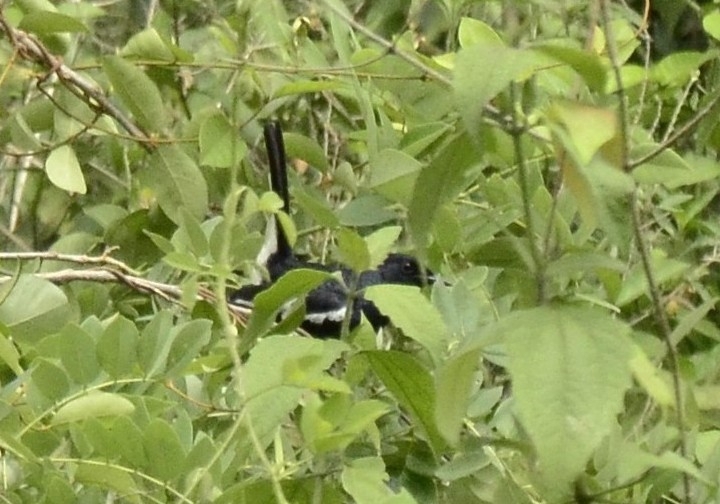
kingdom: Animalia
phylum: Chordata
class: Aves
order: Passeriformes
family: Muscicapidae
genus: Copsychus
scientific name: Copsychus saularis
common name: Oriental magpie-robin
